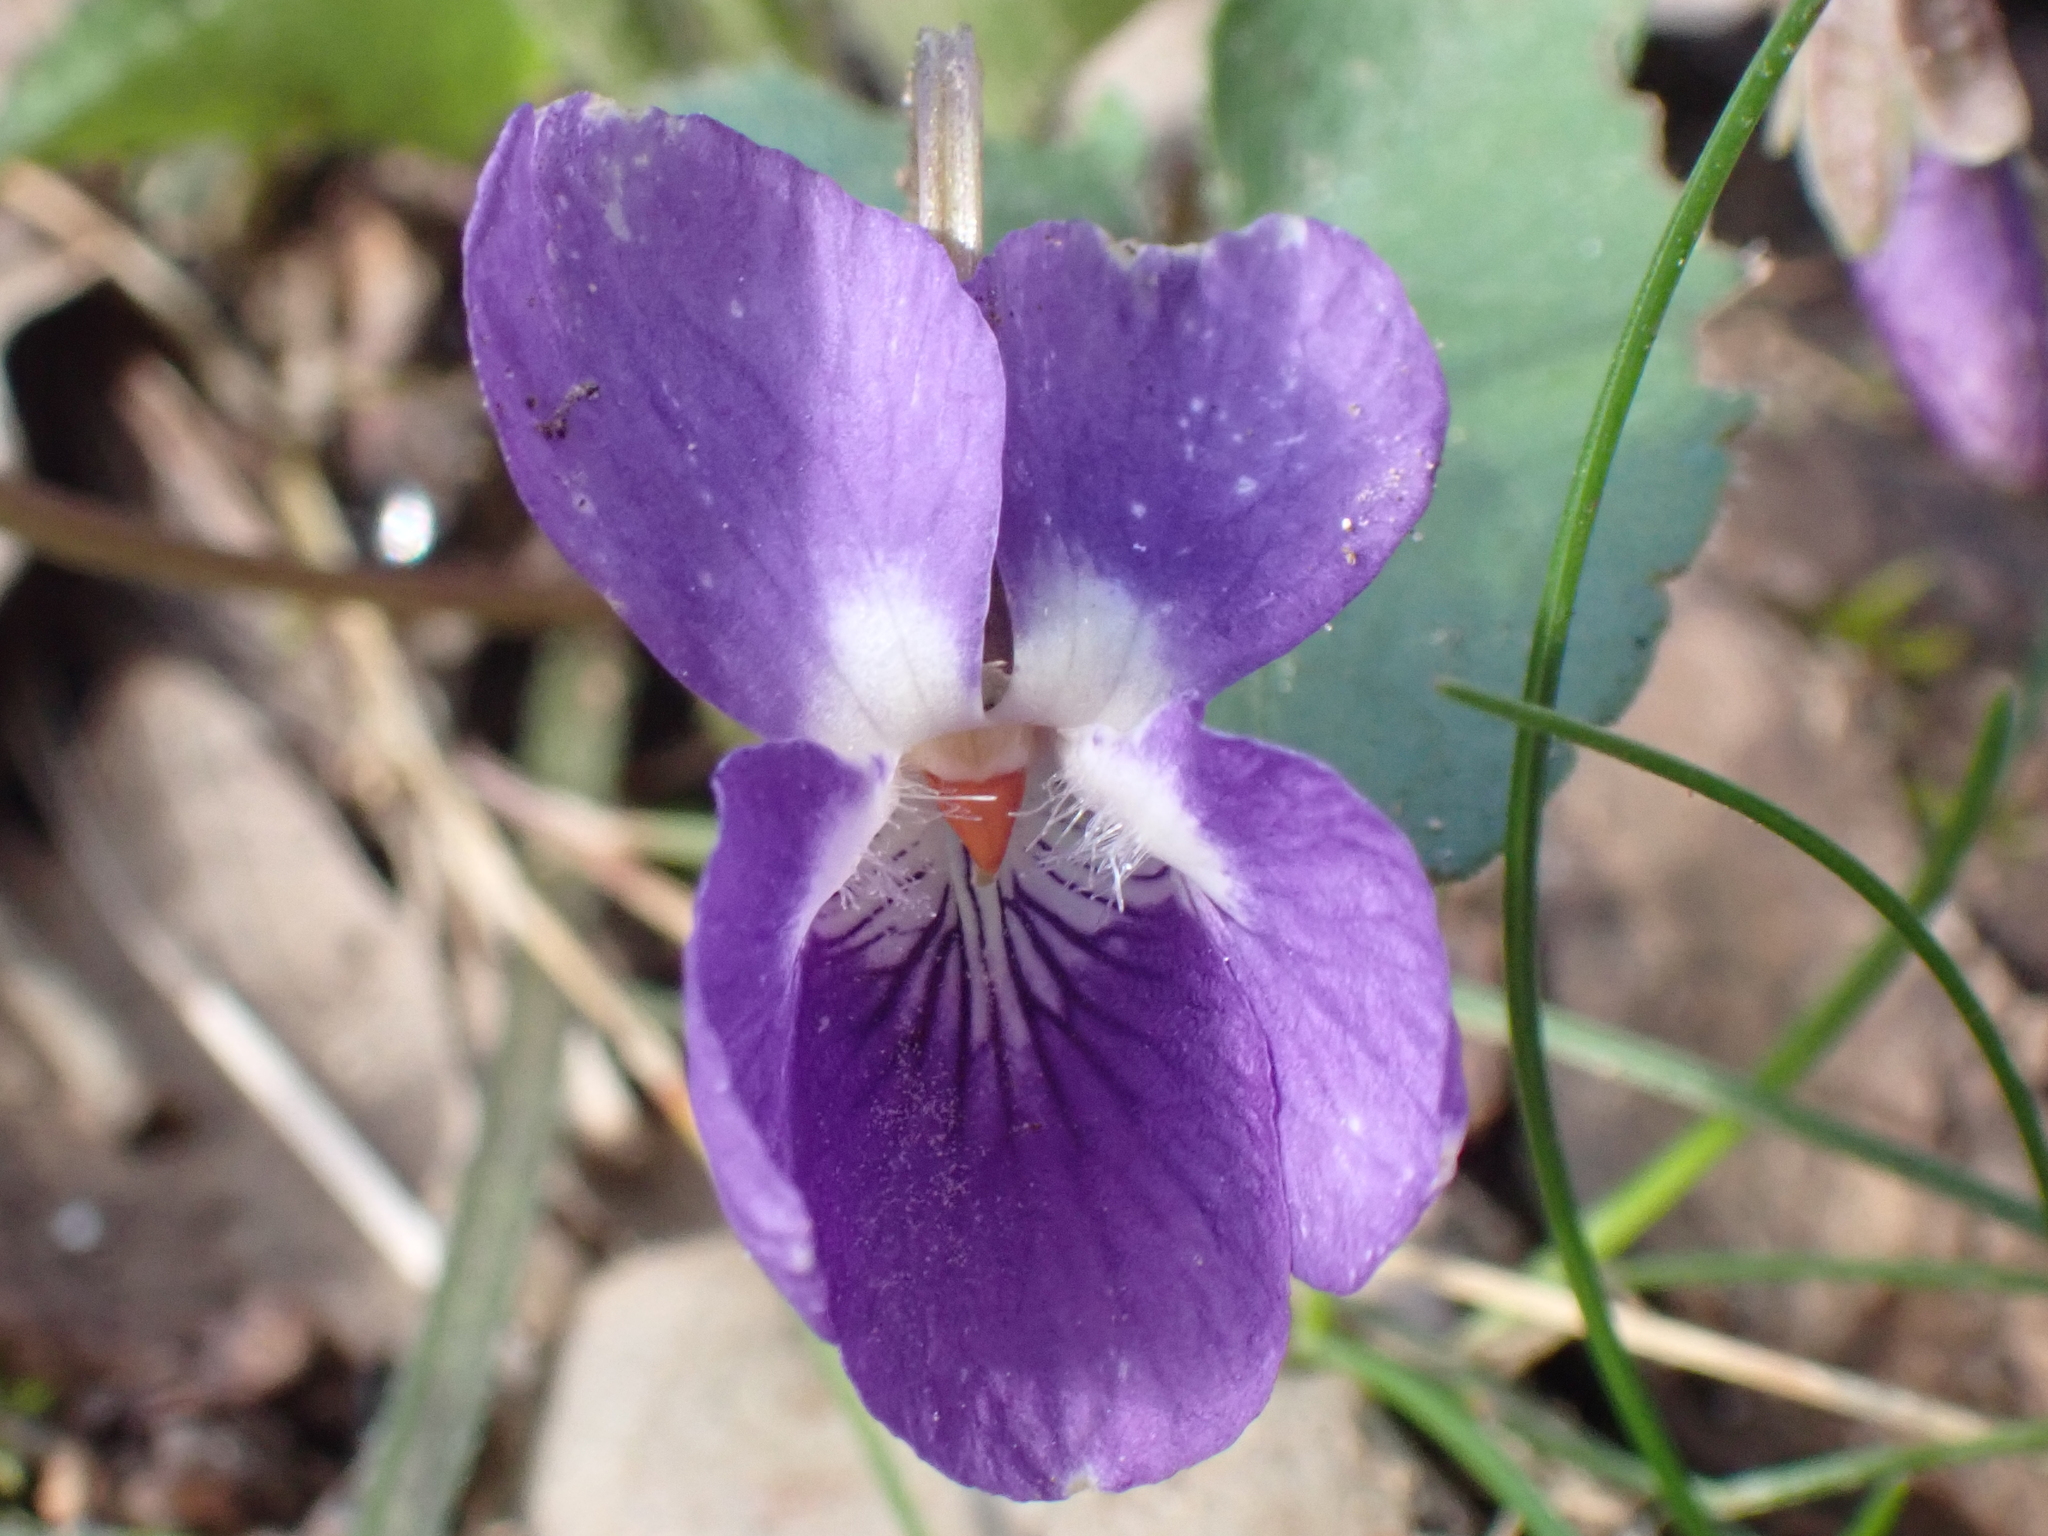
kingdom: Plantae
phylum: Tracheophyta
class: Magnoliopsida
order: Malpighiales
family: Violaceae
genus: Viola
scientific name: Viola alba
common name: White violet
